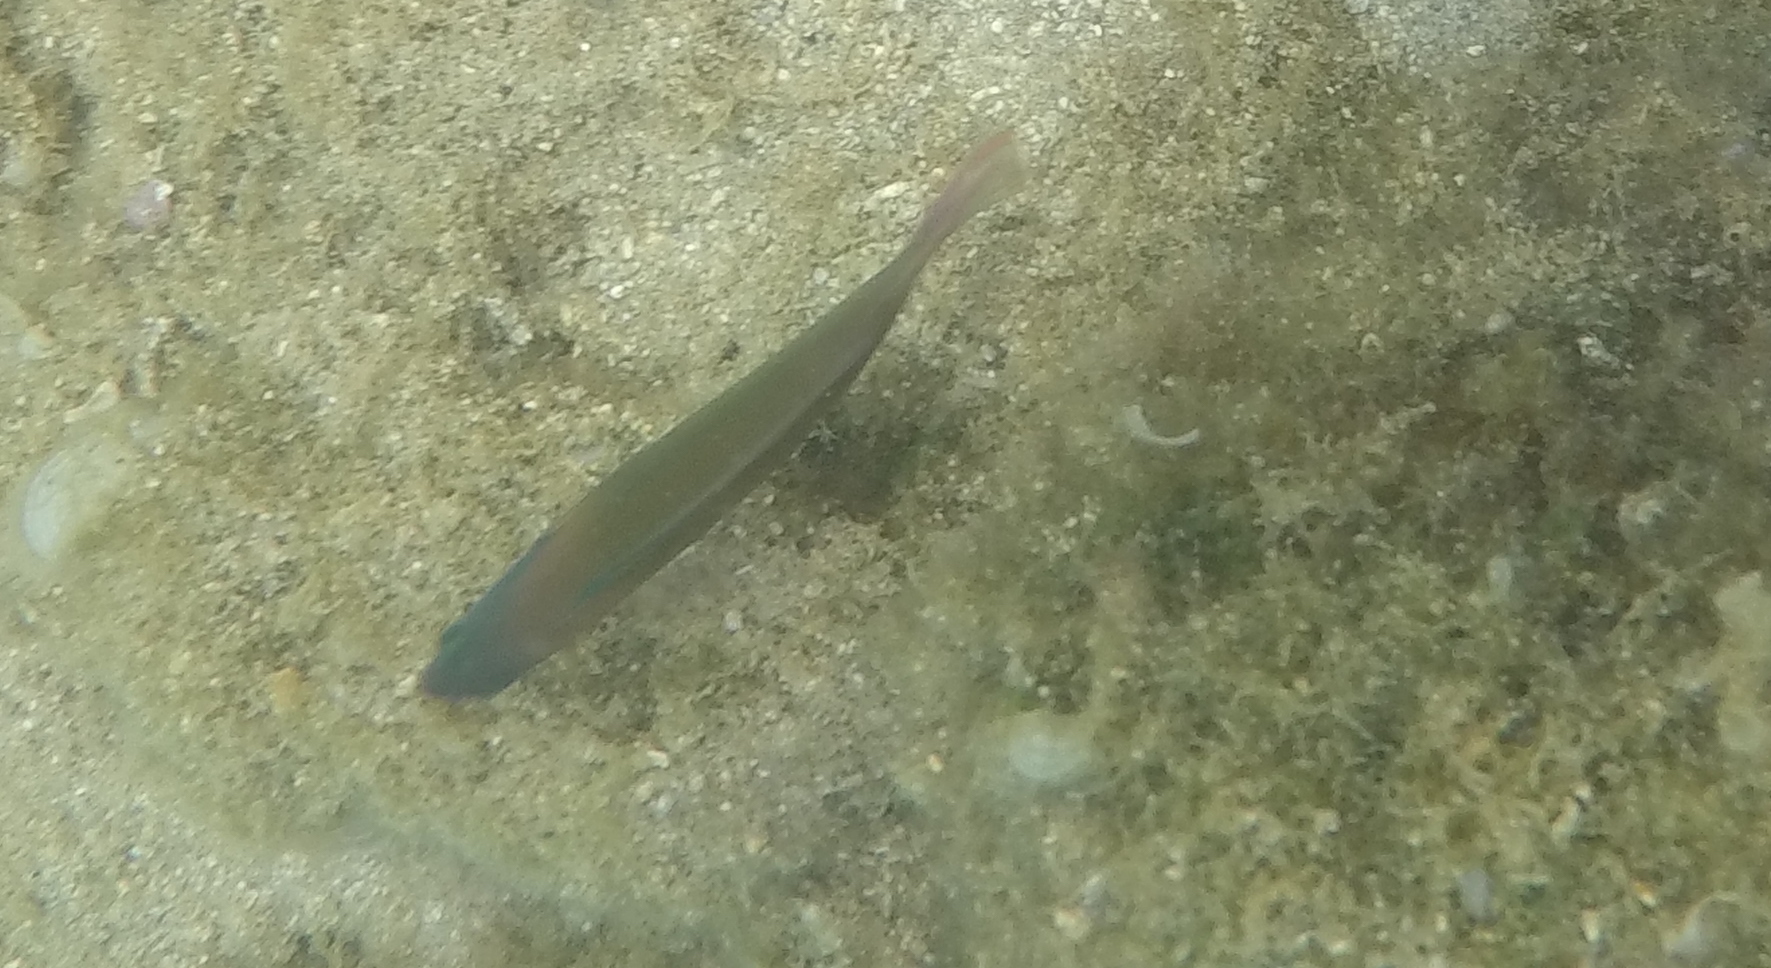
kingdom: Animalia
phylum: Chordata
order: Perciformes
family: Labridae
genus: Thalassoma
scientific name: Thalassoma duperrey
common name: Saddle wrasse
